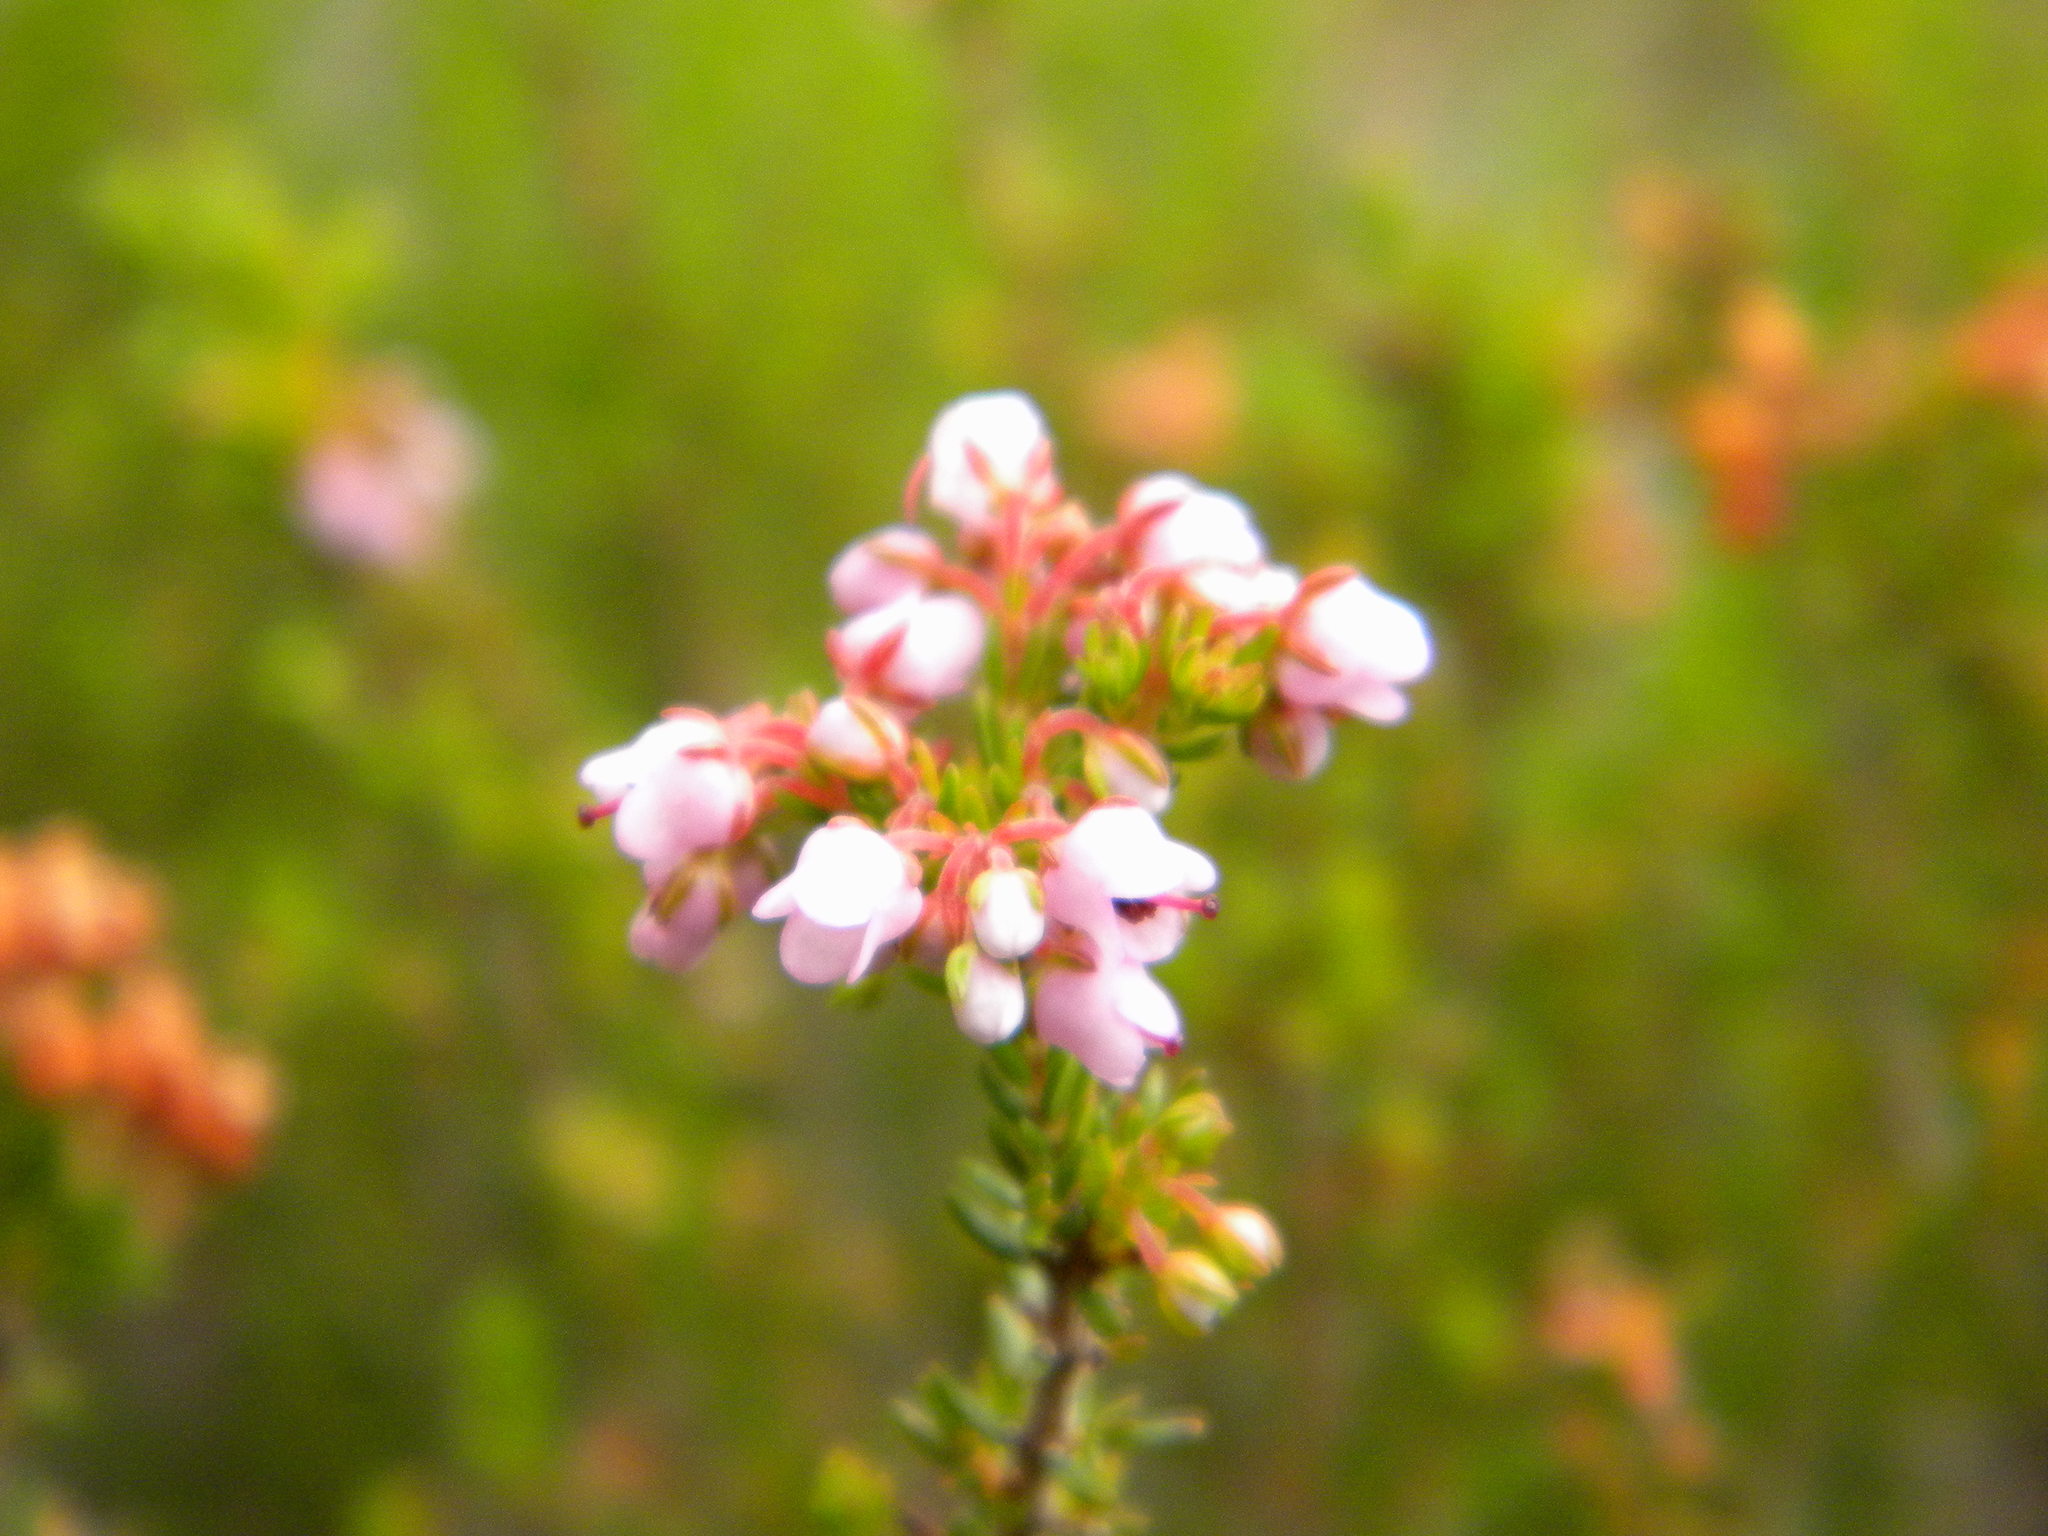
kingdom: Plantae
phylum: Tracheophyta
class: Magnoliopsida
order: Ericales
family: Ericaceae
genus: Erica
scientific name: Erica curvirostris
